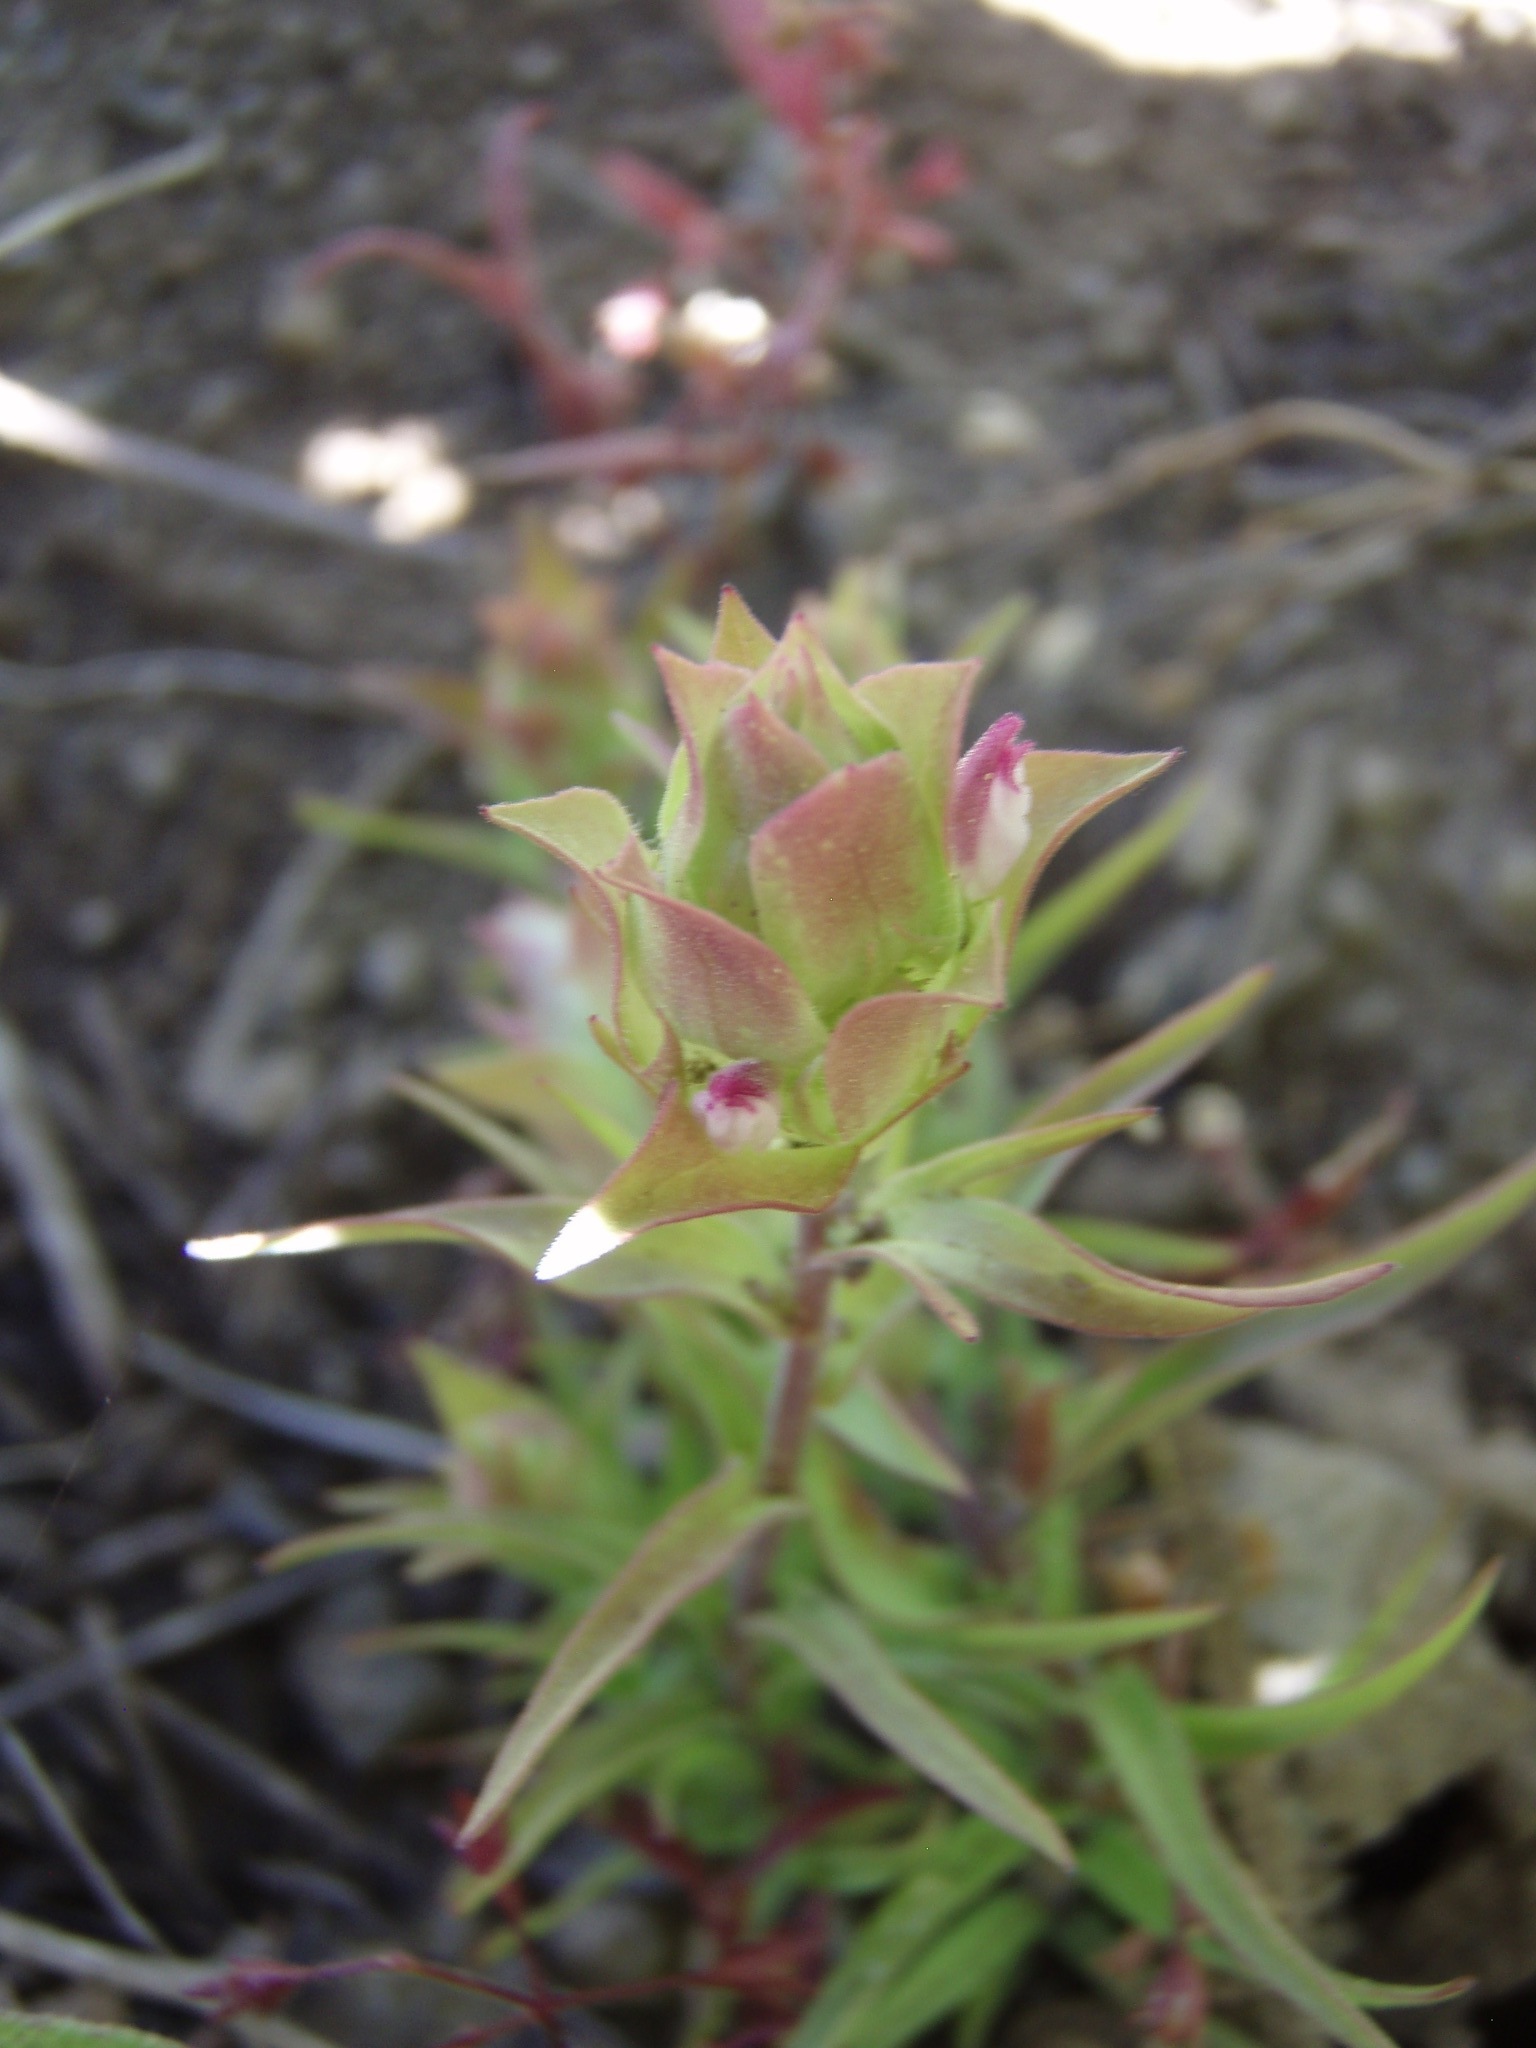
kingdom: Plantae
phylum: Tracheophyta
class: Magnoliopsida
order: Lamiales
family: Orobanchaceae
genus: Orthocarpus
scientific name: Orthocarpus cuspidatus
